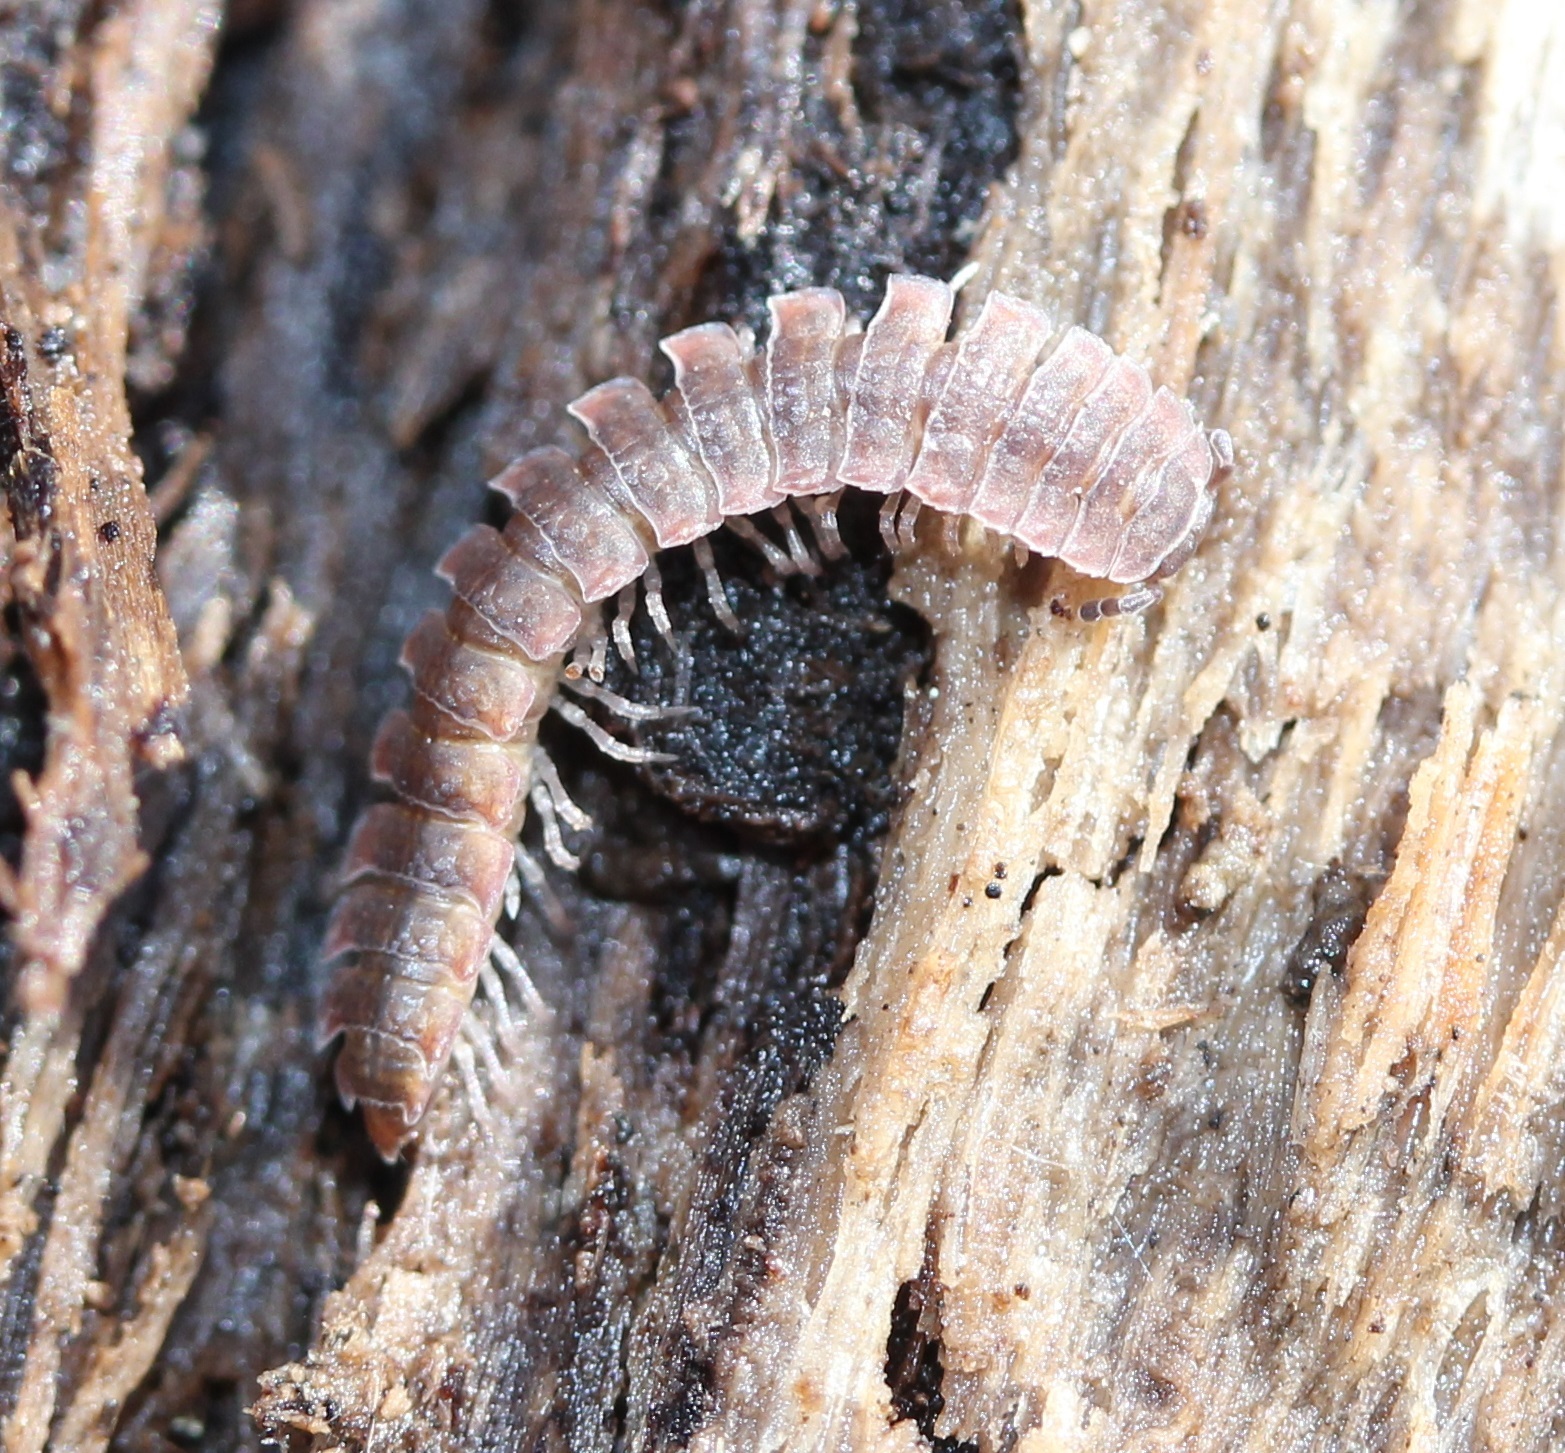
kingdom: Animalia
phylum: Arthropoda
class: Diplopoda
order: Polydesmida
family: Polydesmidae
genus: Pseudopolydesmus
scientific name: Pseudopolydesmus serratus
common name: Common pink flat-back millipede
